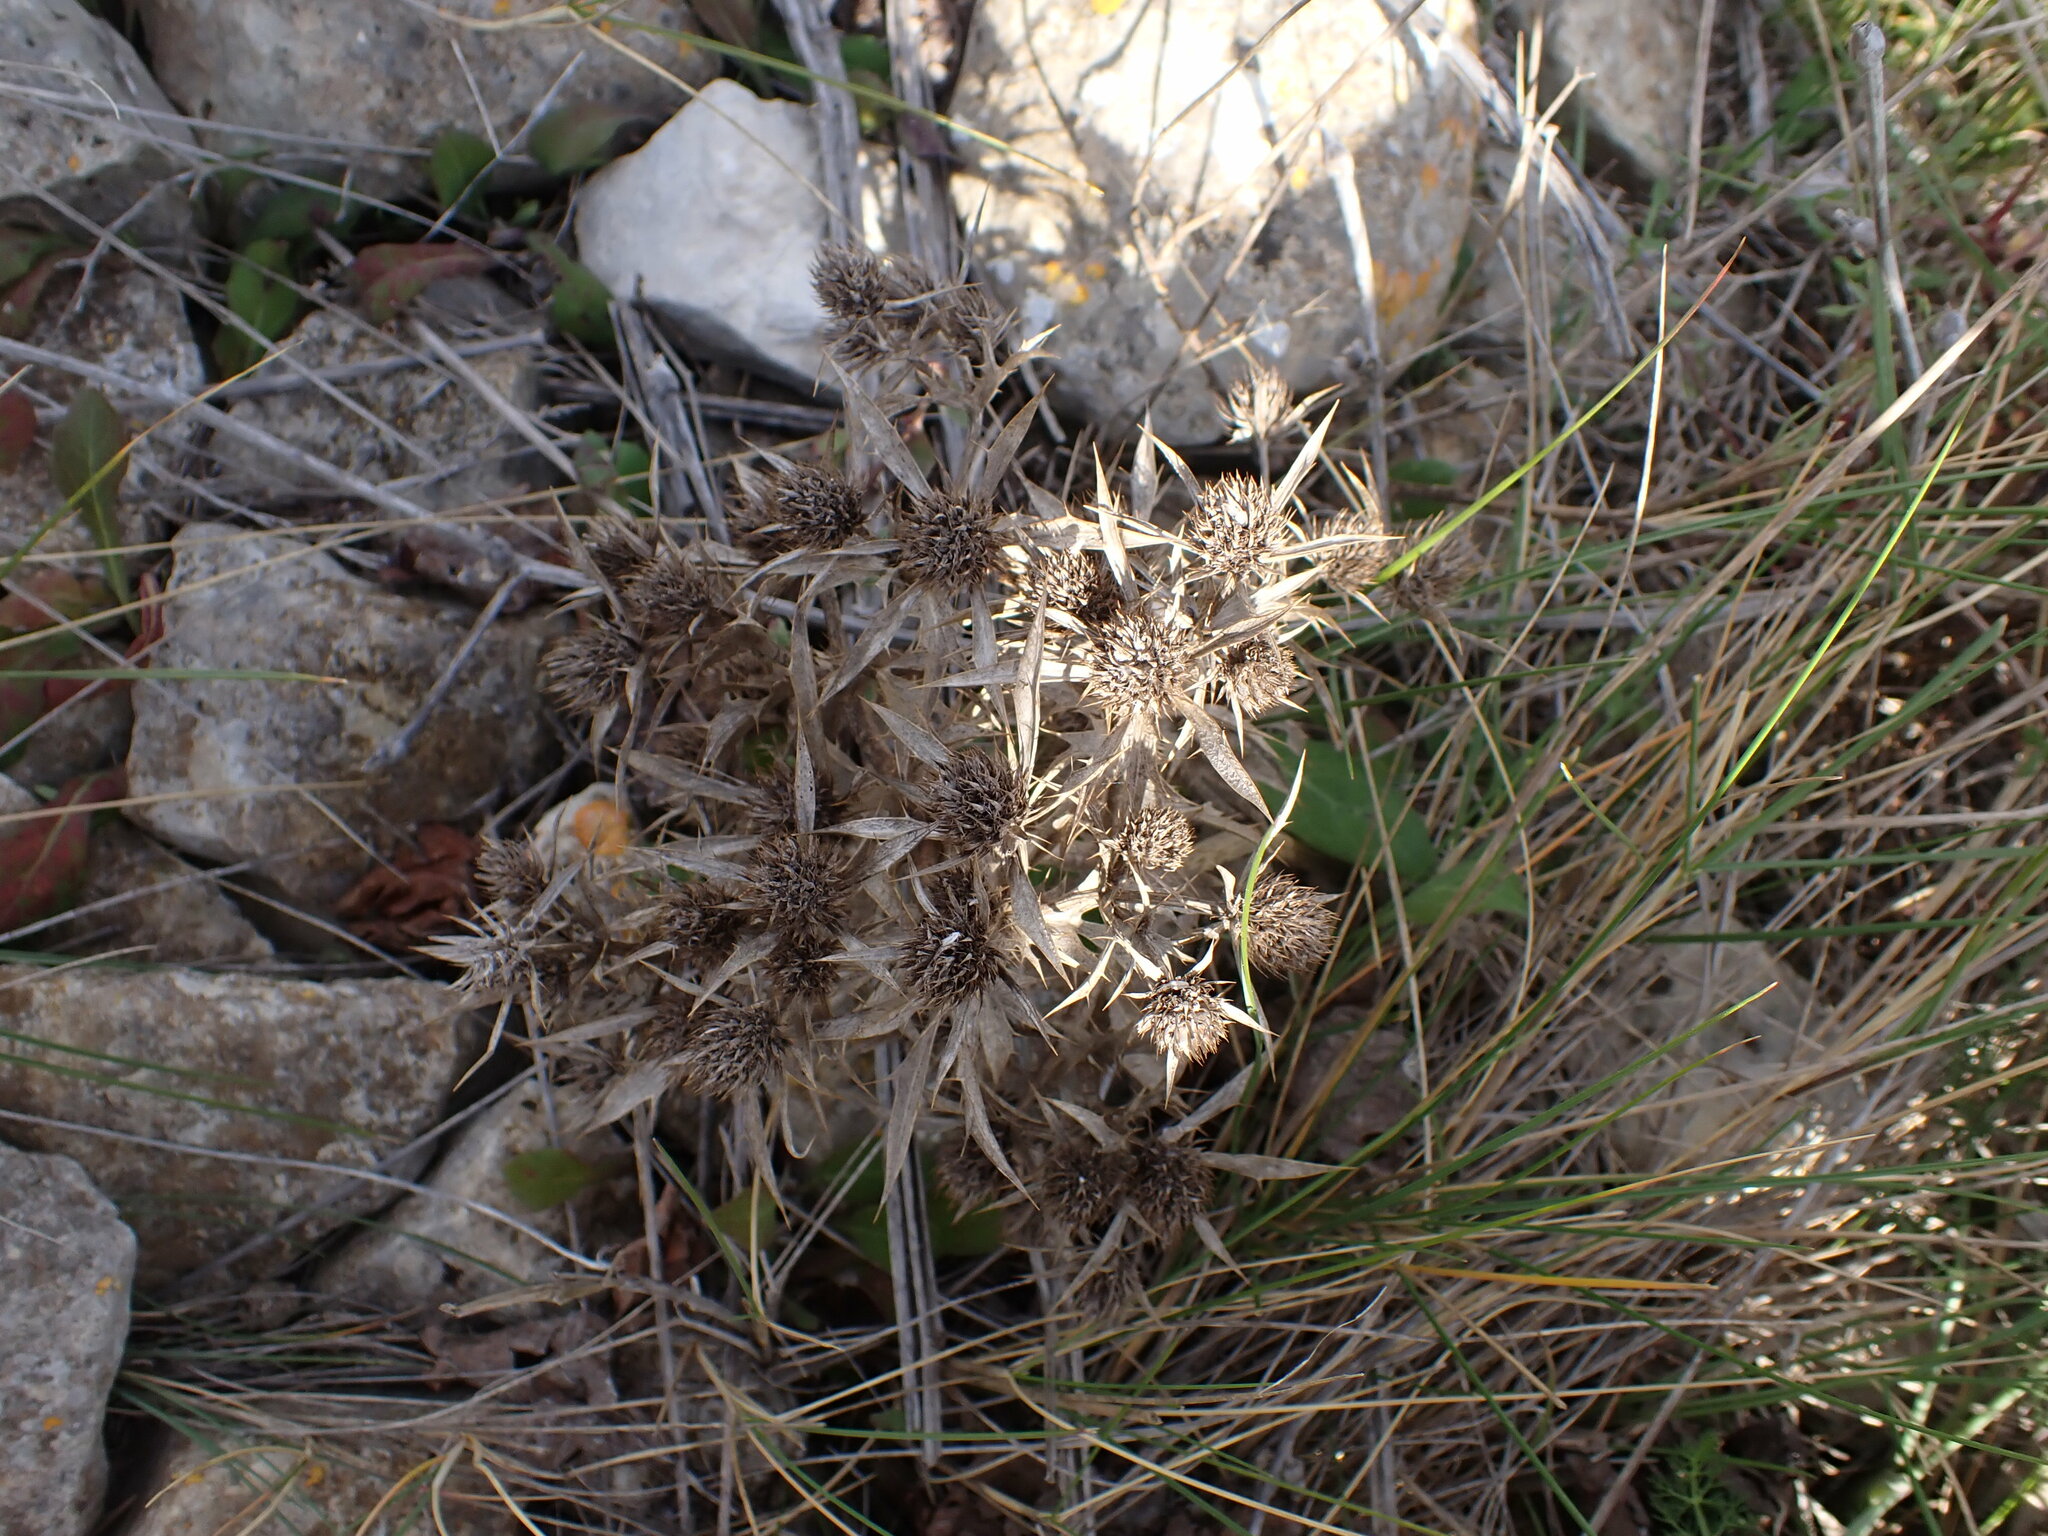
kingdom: Plantae
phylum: Tracheophyta
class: Magnoliopsida
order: Apiales
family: Apiaceae
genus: Eryngium
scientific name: Eryngium campestre
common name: Field eryngo
